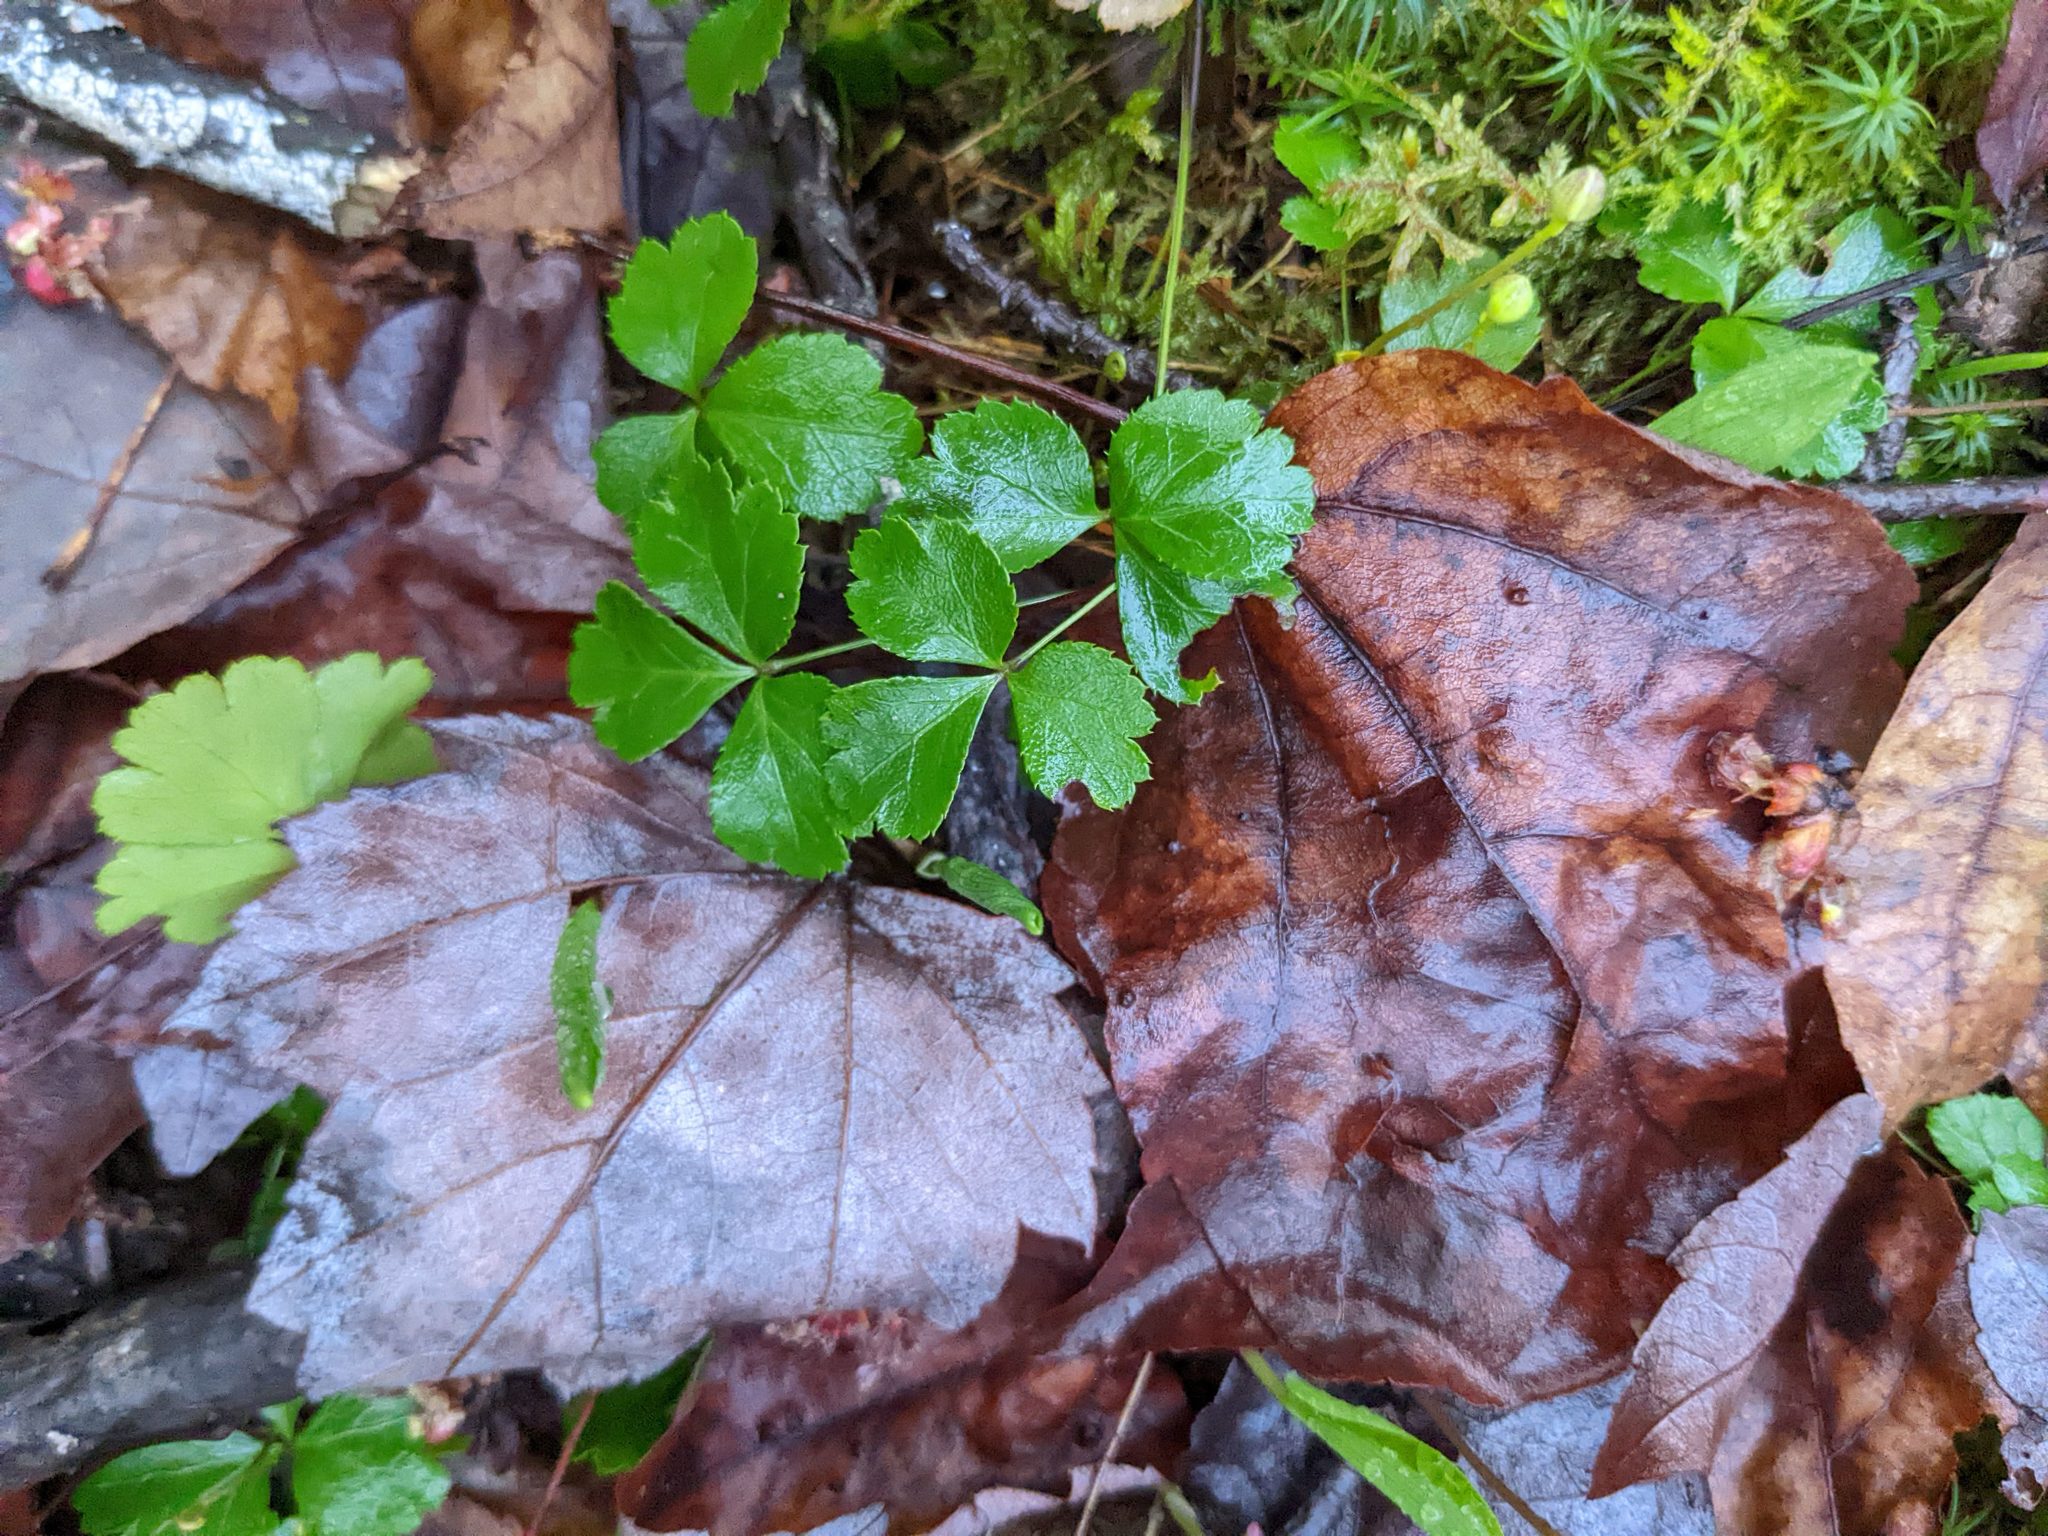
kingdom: Plantae
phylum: Tracheophyta
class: Magnoliopsida
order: Ranunculales
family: Ranunculaceae
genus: Coptis
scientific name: Coptis trifolia
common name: Canker-root
